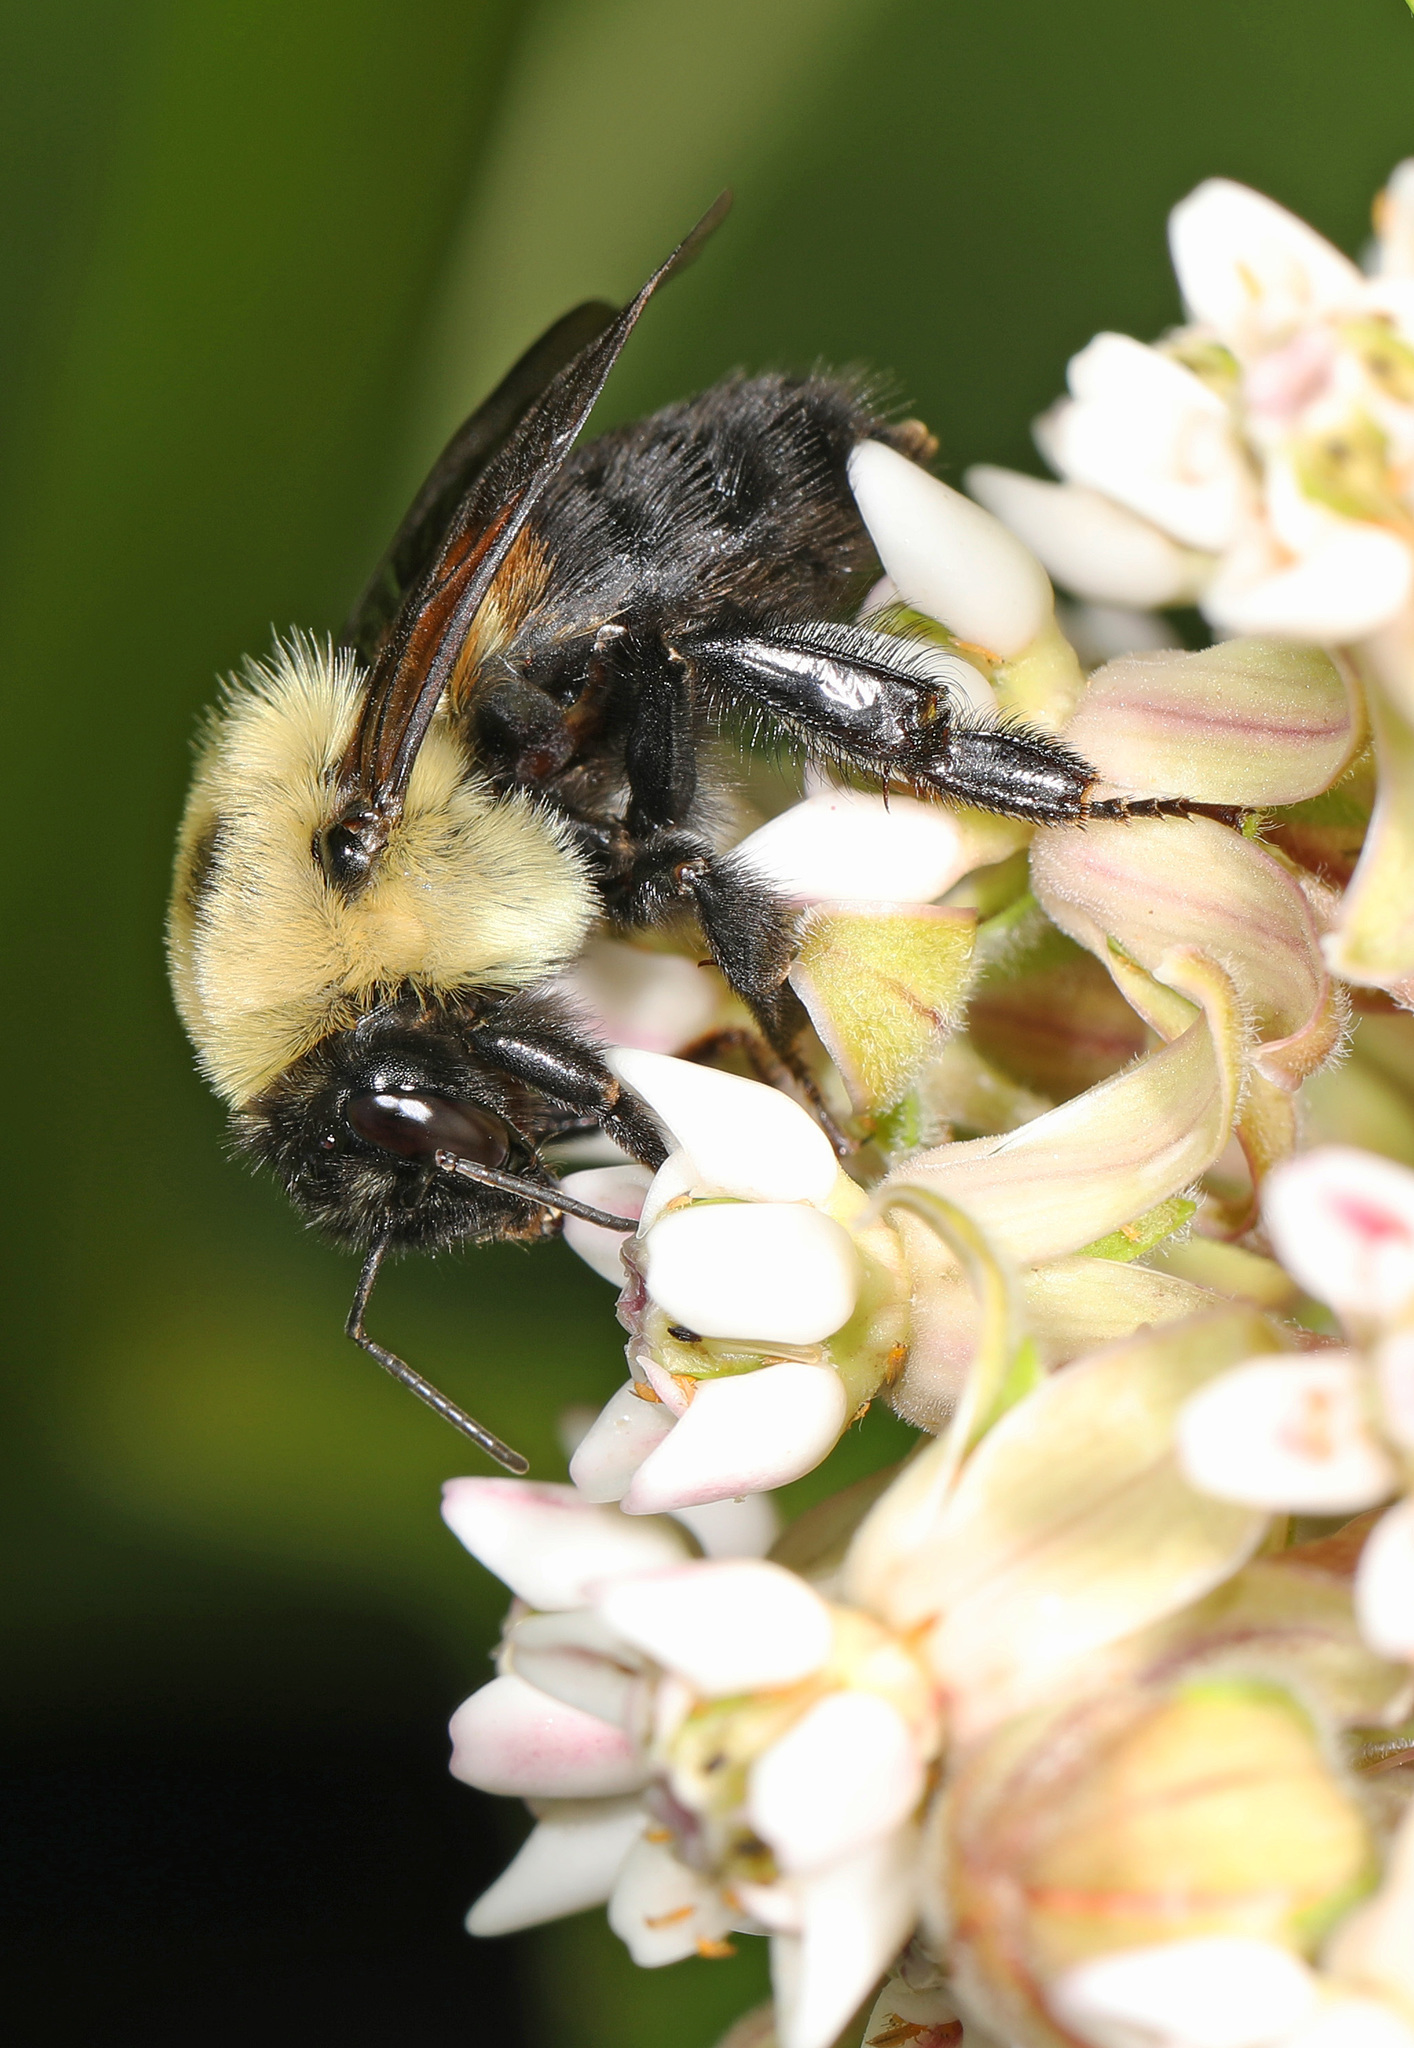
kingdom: Animalia
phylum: Arthropoda
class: Insecta
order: Hymenoptera
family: Apidae
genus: Bombus
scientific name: Bombus griseocollis
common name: Brown-belted bumble bee
